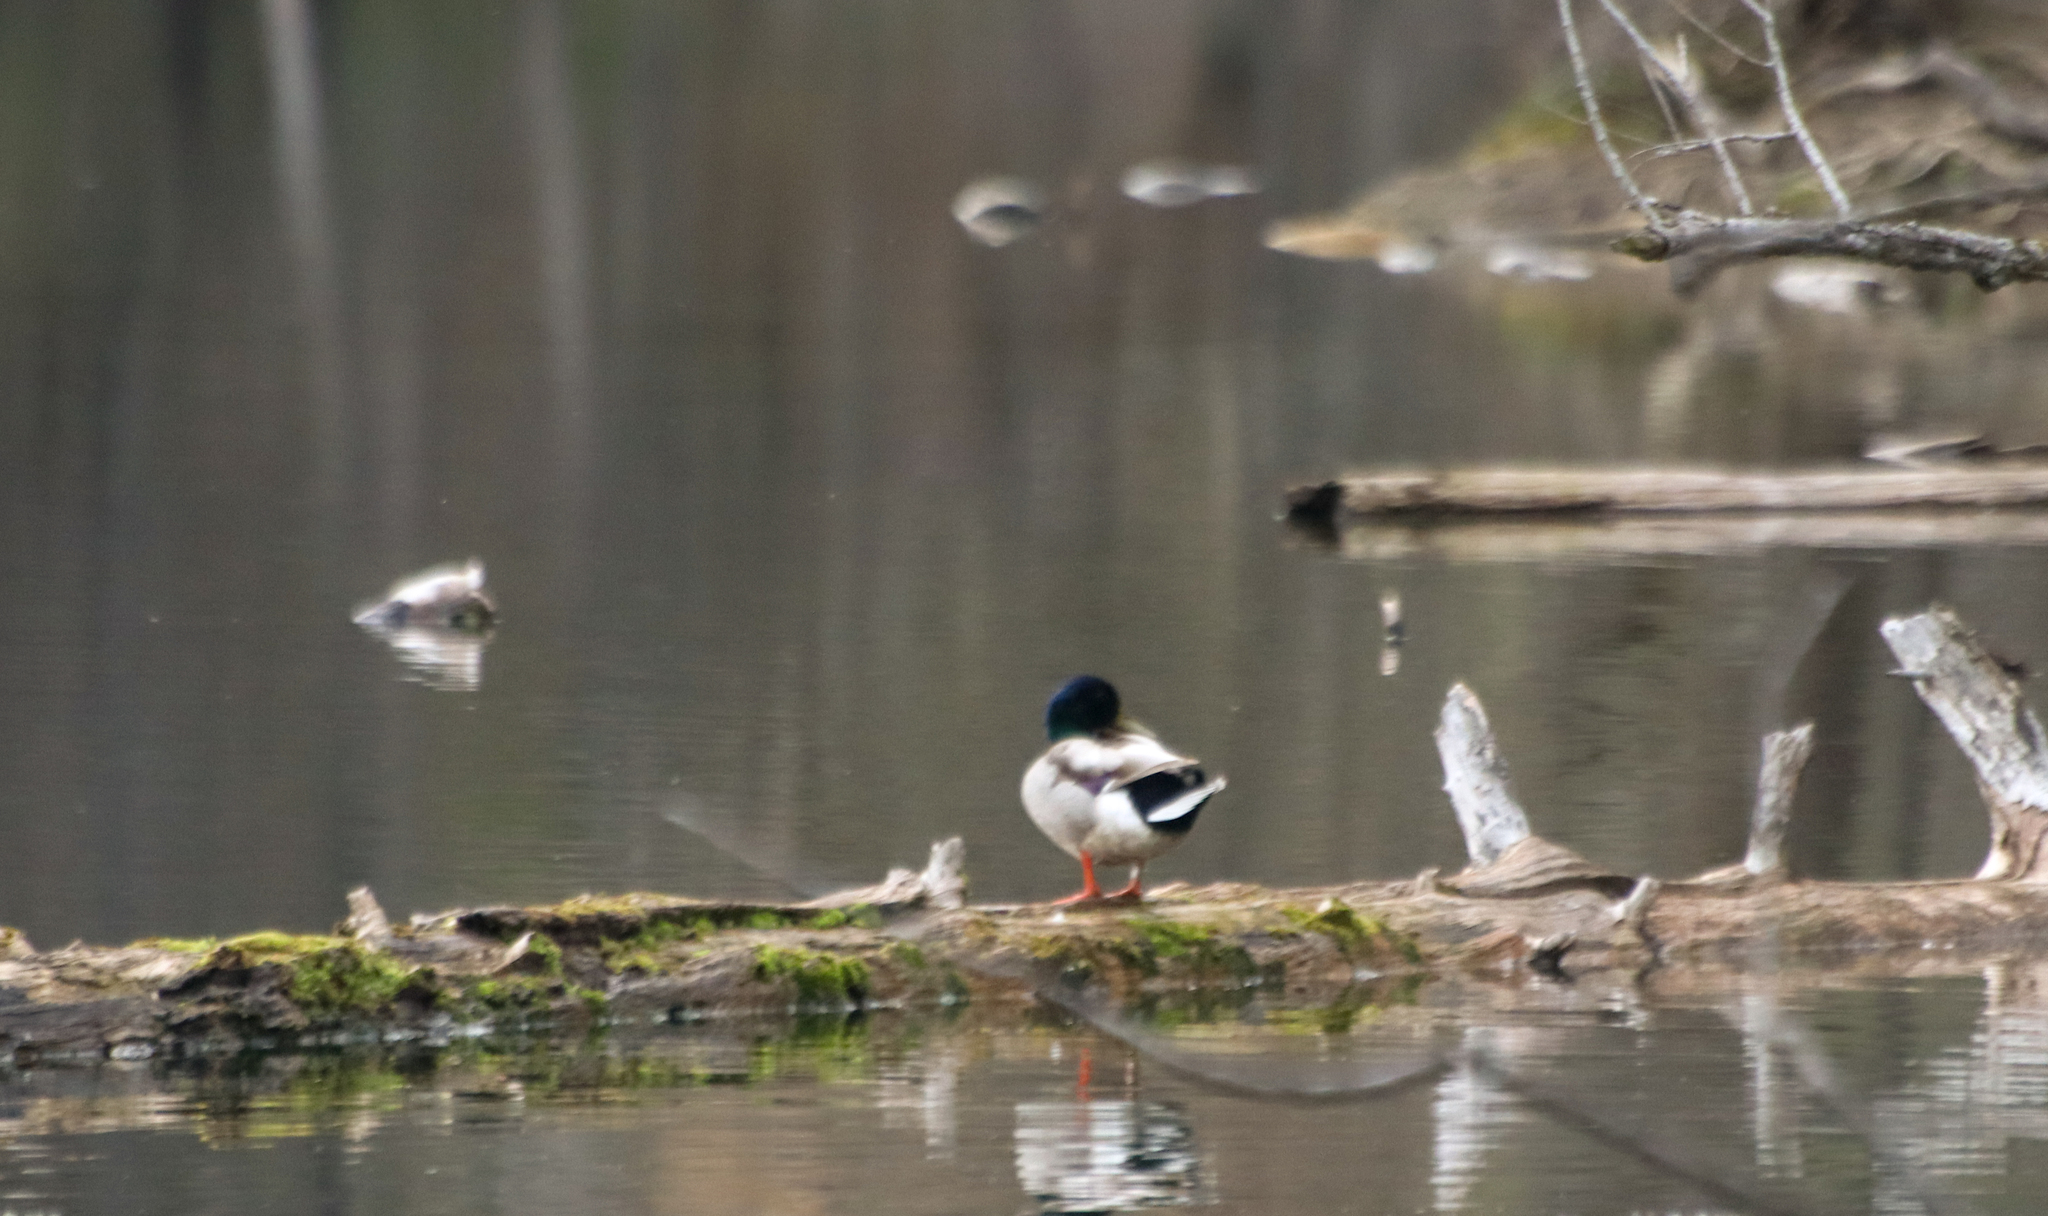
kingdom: Animalia
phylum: Chordata
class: Aves
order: Anseriformes
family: Anatidae
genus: Anas
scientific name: Anas platyrhynchos
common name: Mallard
